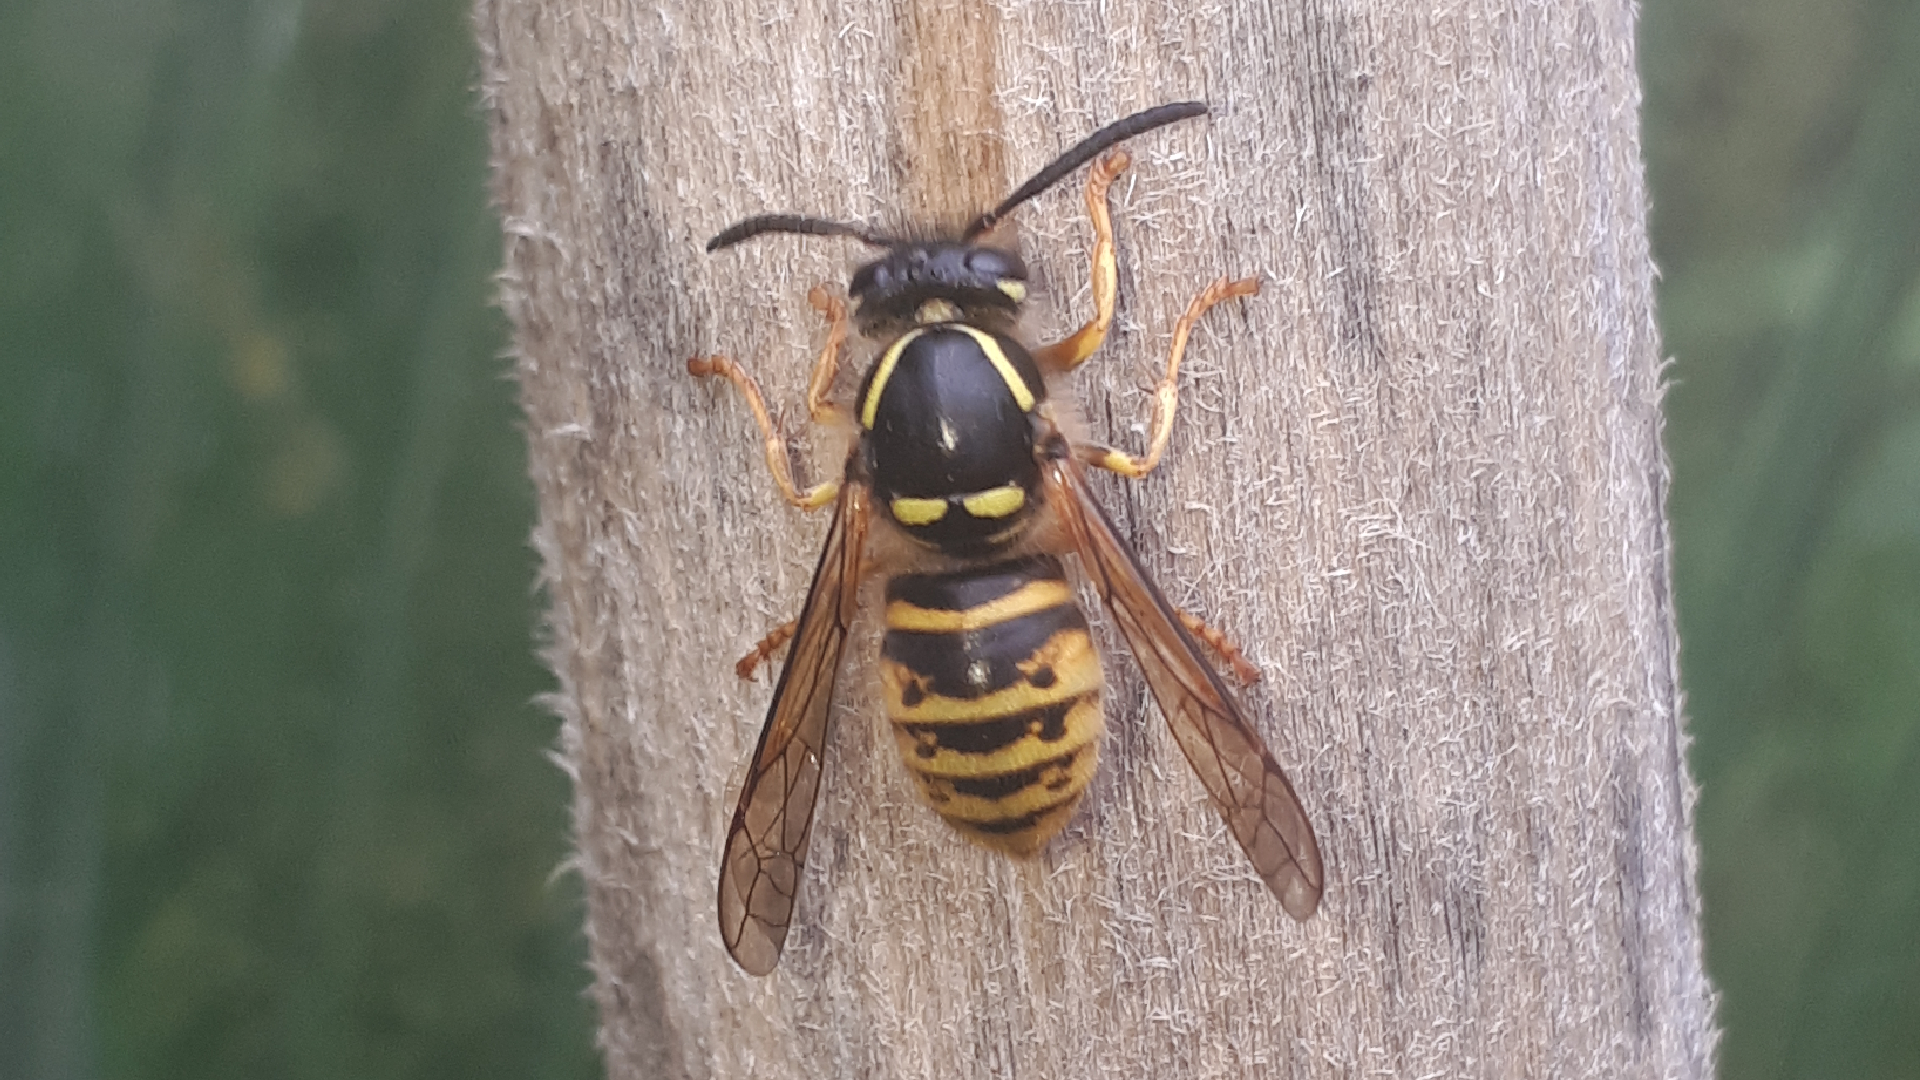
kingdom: Animalia
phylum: Arthropoda
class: Insecta
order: Hymenoptera
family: Vespidae
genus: Dolichovespula
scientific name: Dolichovespula saxonica
